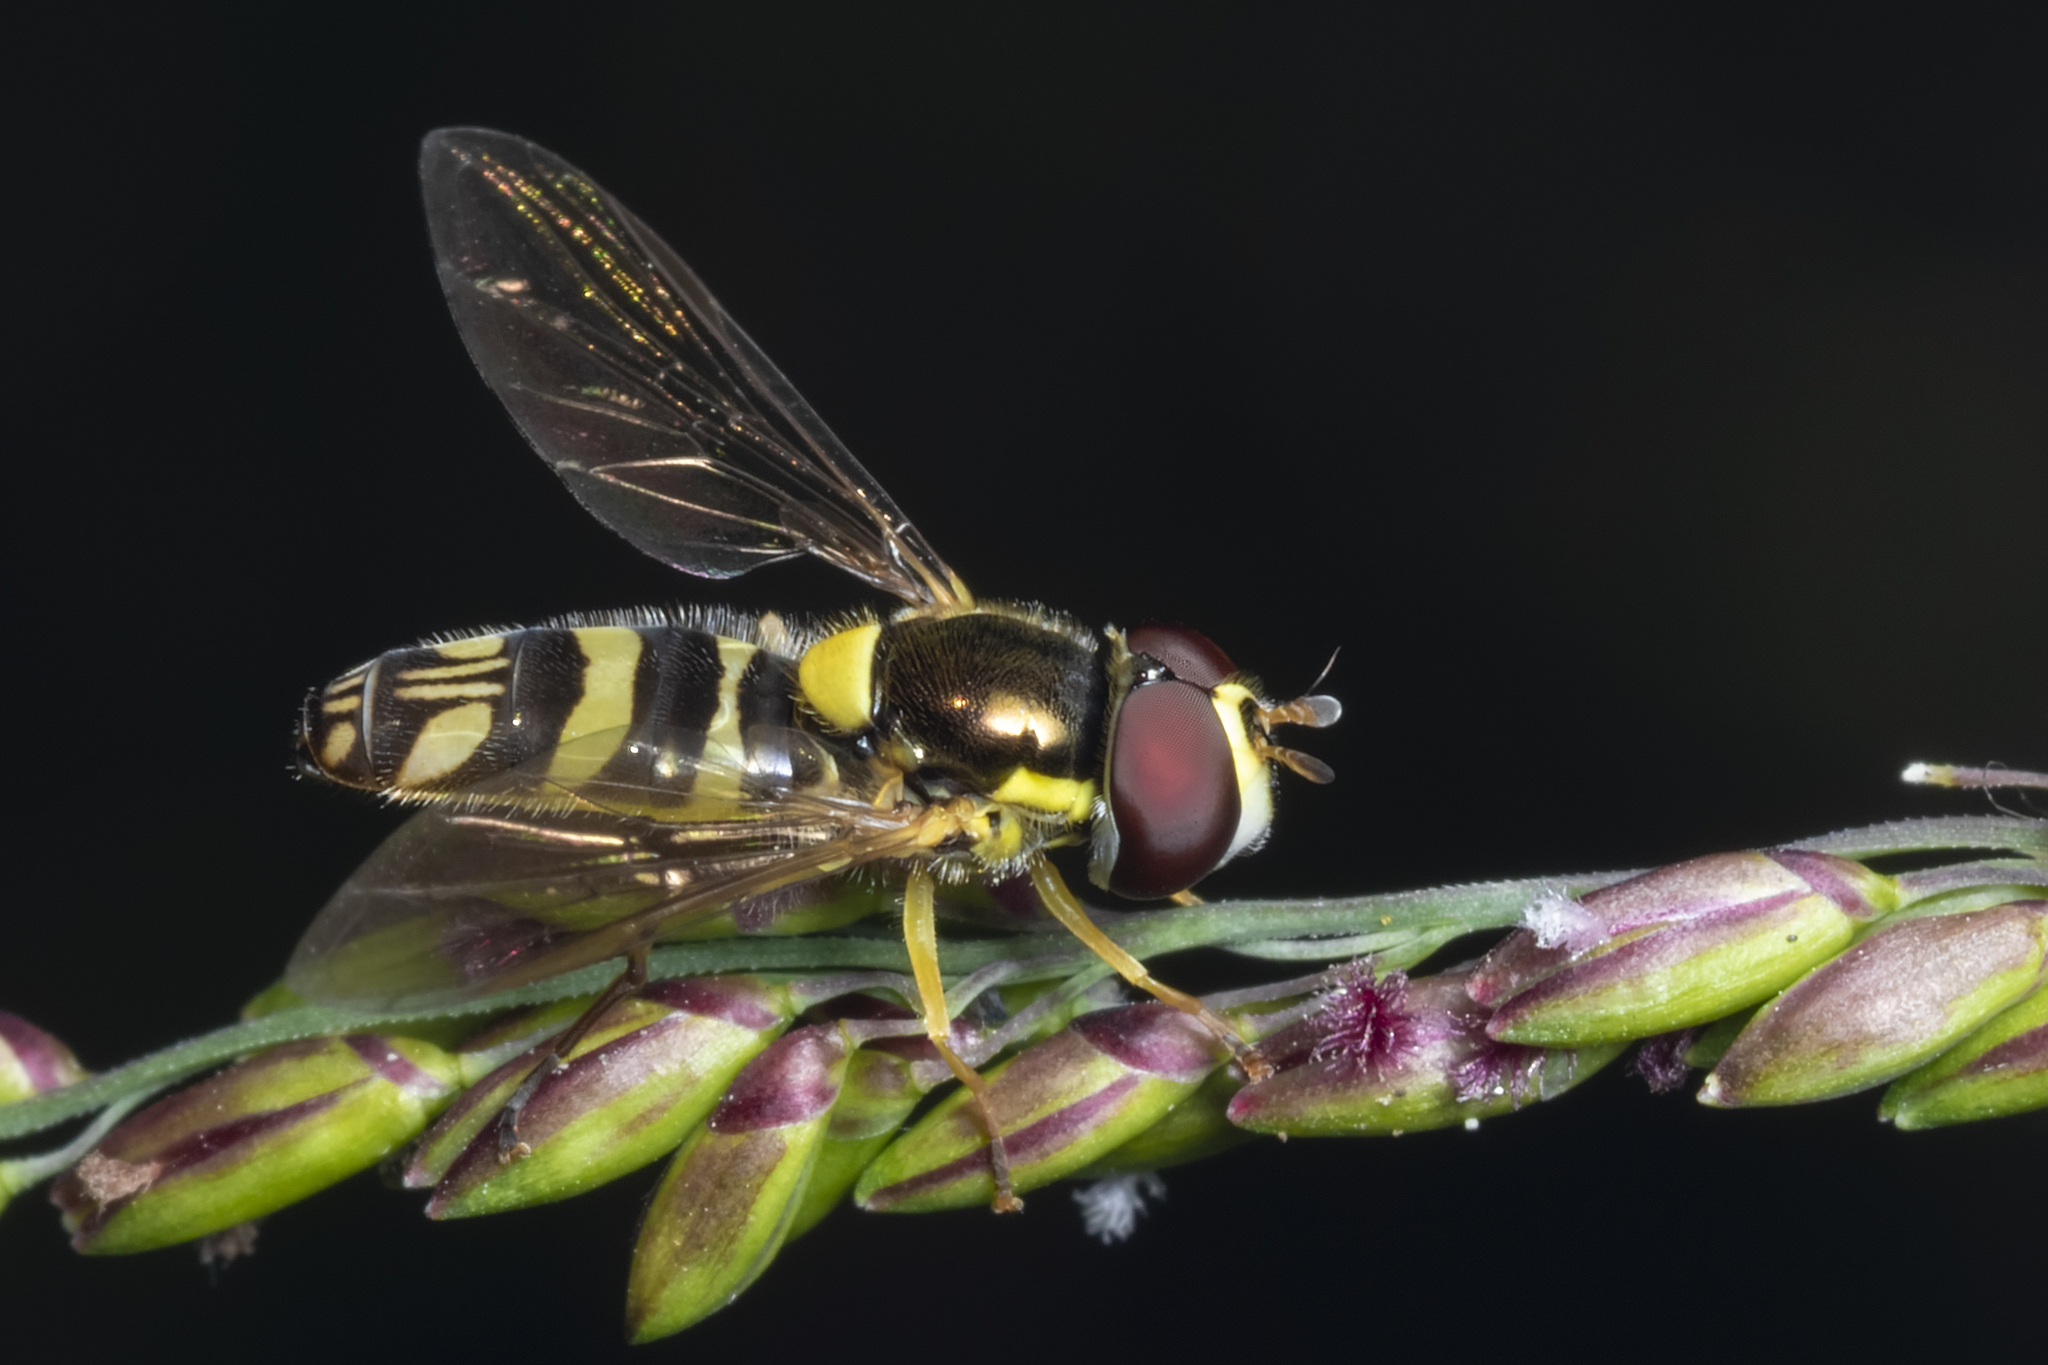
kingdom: Animalia
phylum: Arthropoda
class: Insecta
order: Diptera
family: Syrphidae
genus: Allograpta
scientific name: Allograpta
